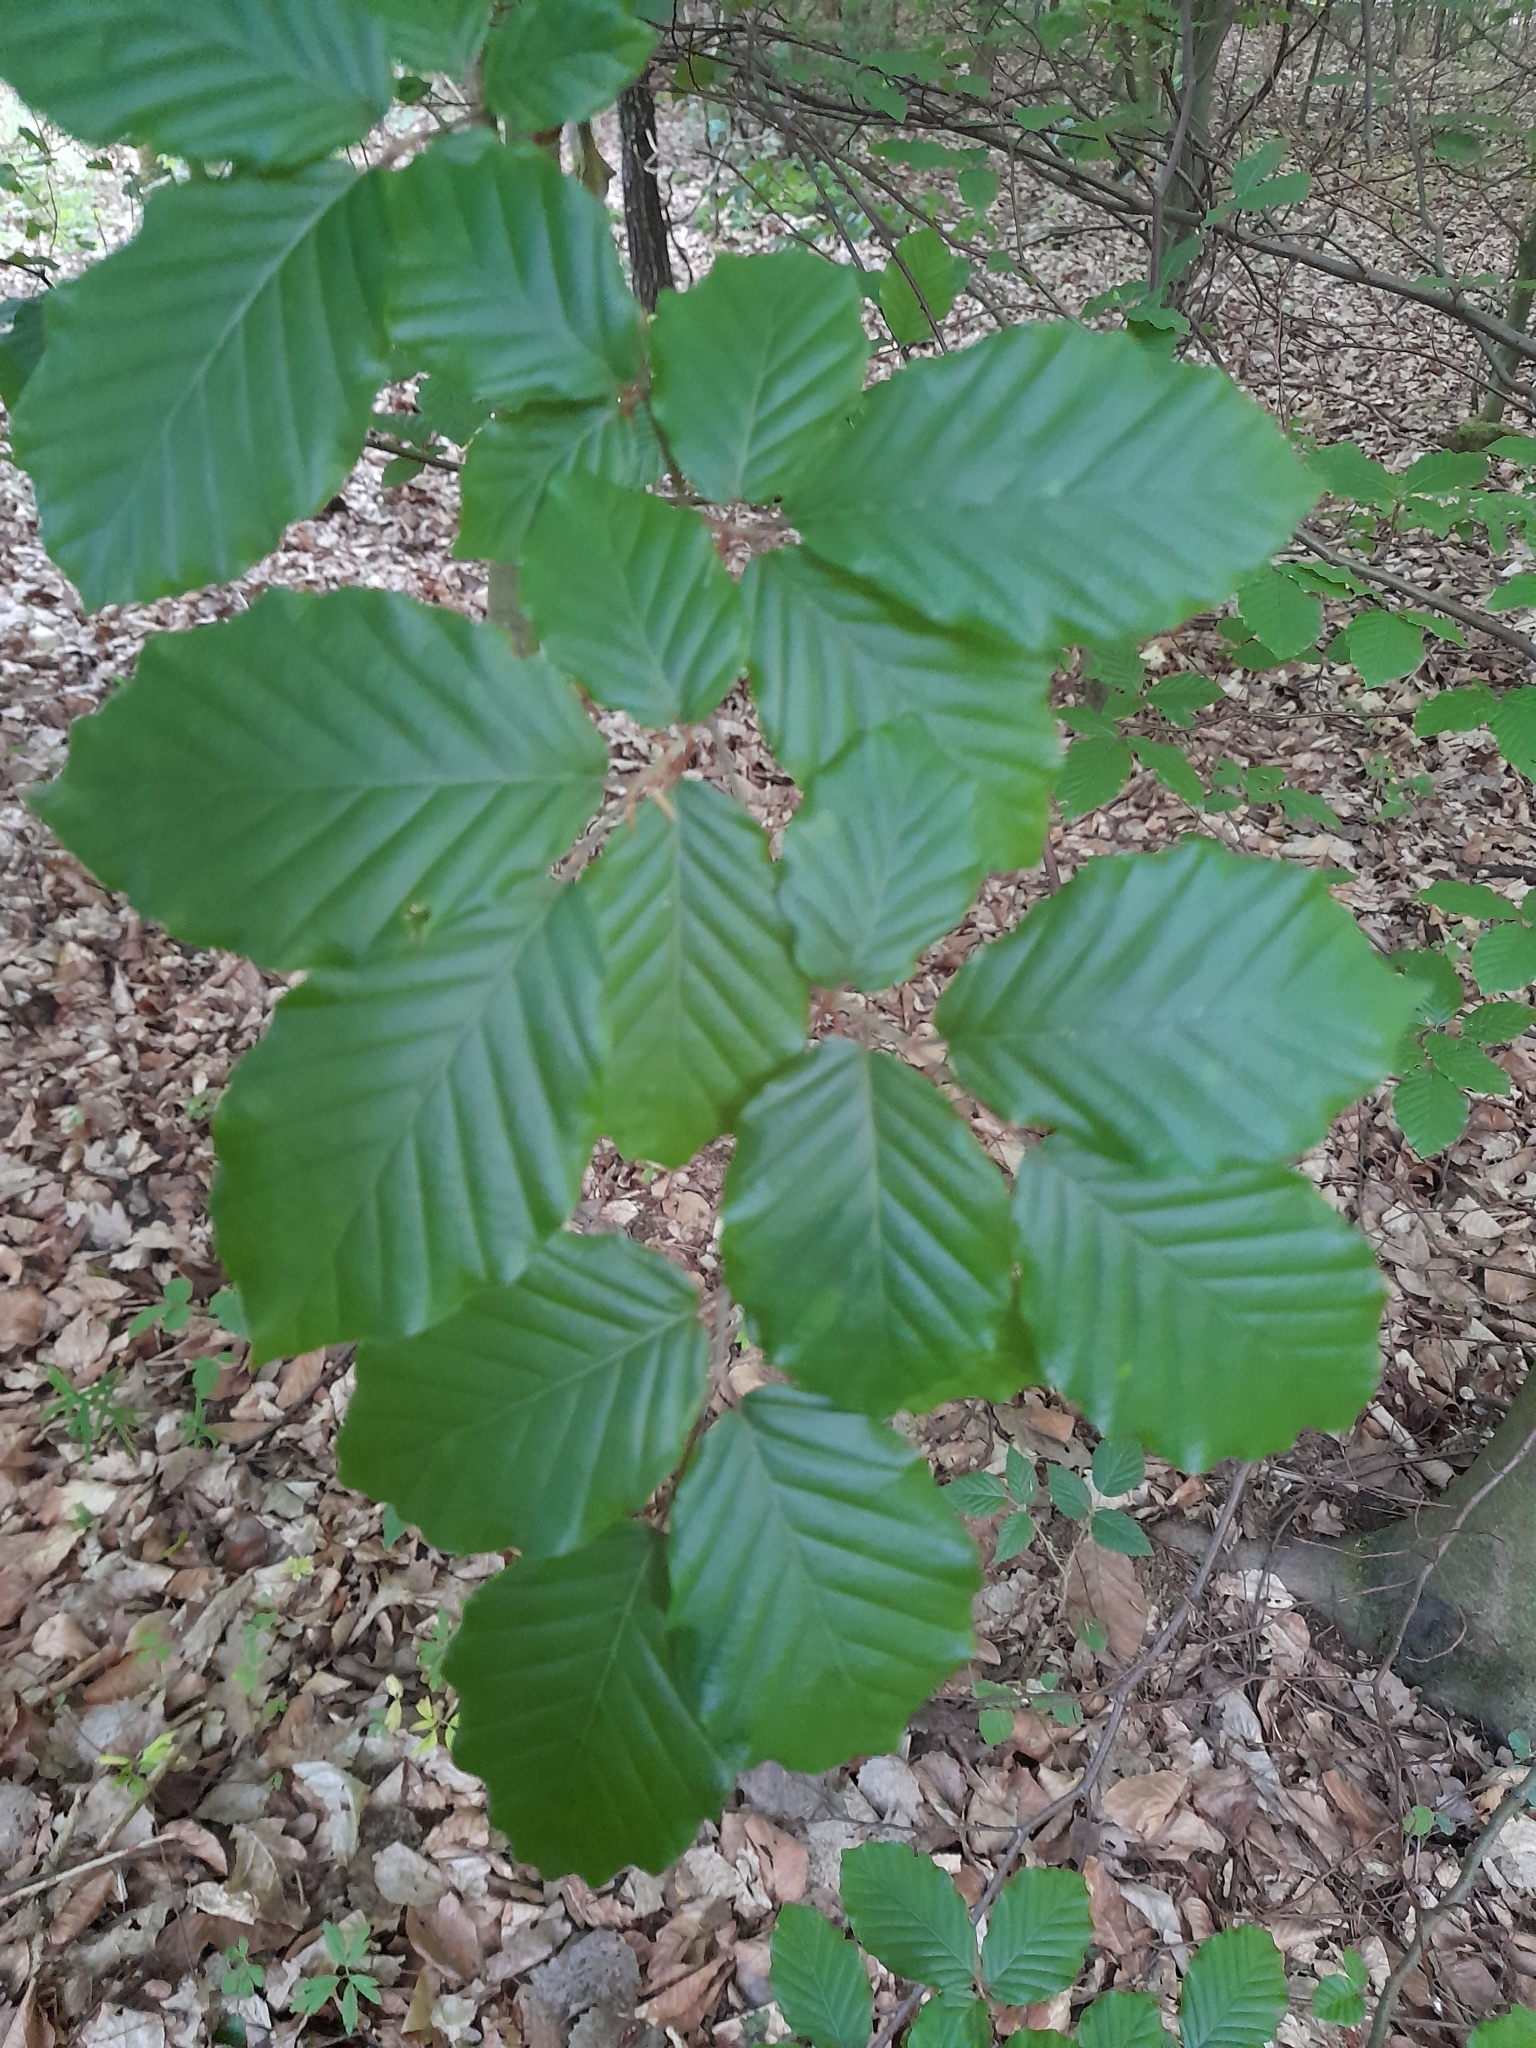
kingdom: Plantae
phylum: Tracheophyta
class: Magnoliopsida
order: Fagales
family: Fagaceae
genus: Fagus
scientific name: Fagus sylvatica
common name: Beech
